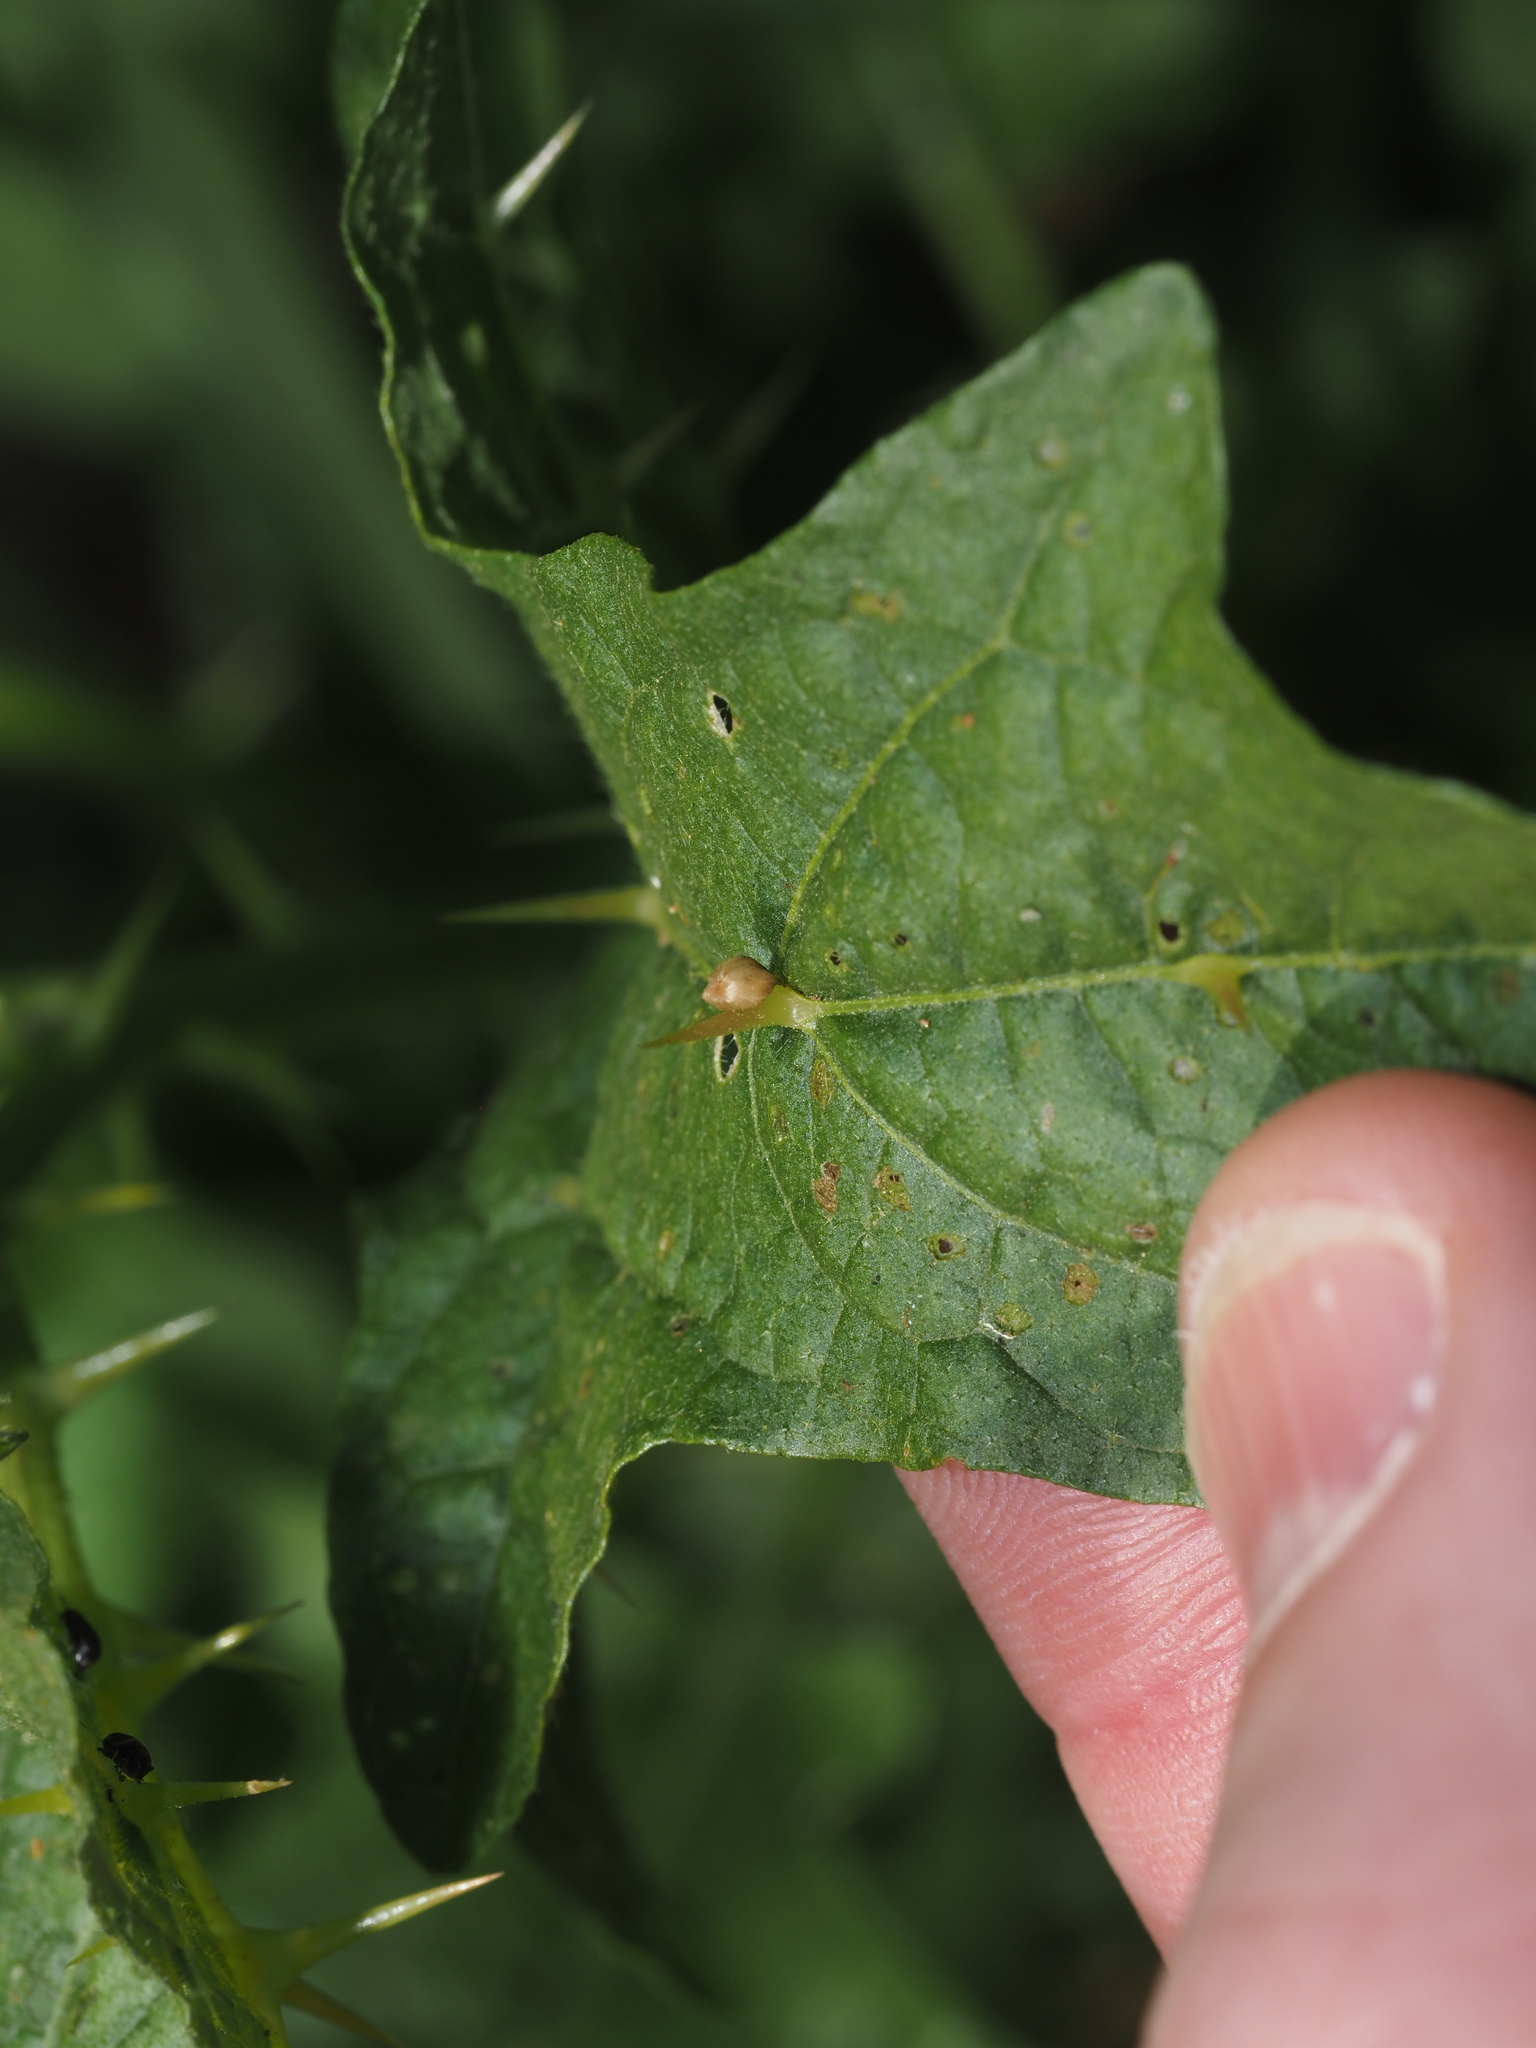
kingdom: Plantae
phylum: Tracheophyta
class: Magnoliopsida
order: Solanales
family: Solanaceae
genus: Solanum
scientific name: Solanum carolinense
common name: Horse-nettle
